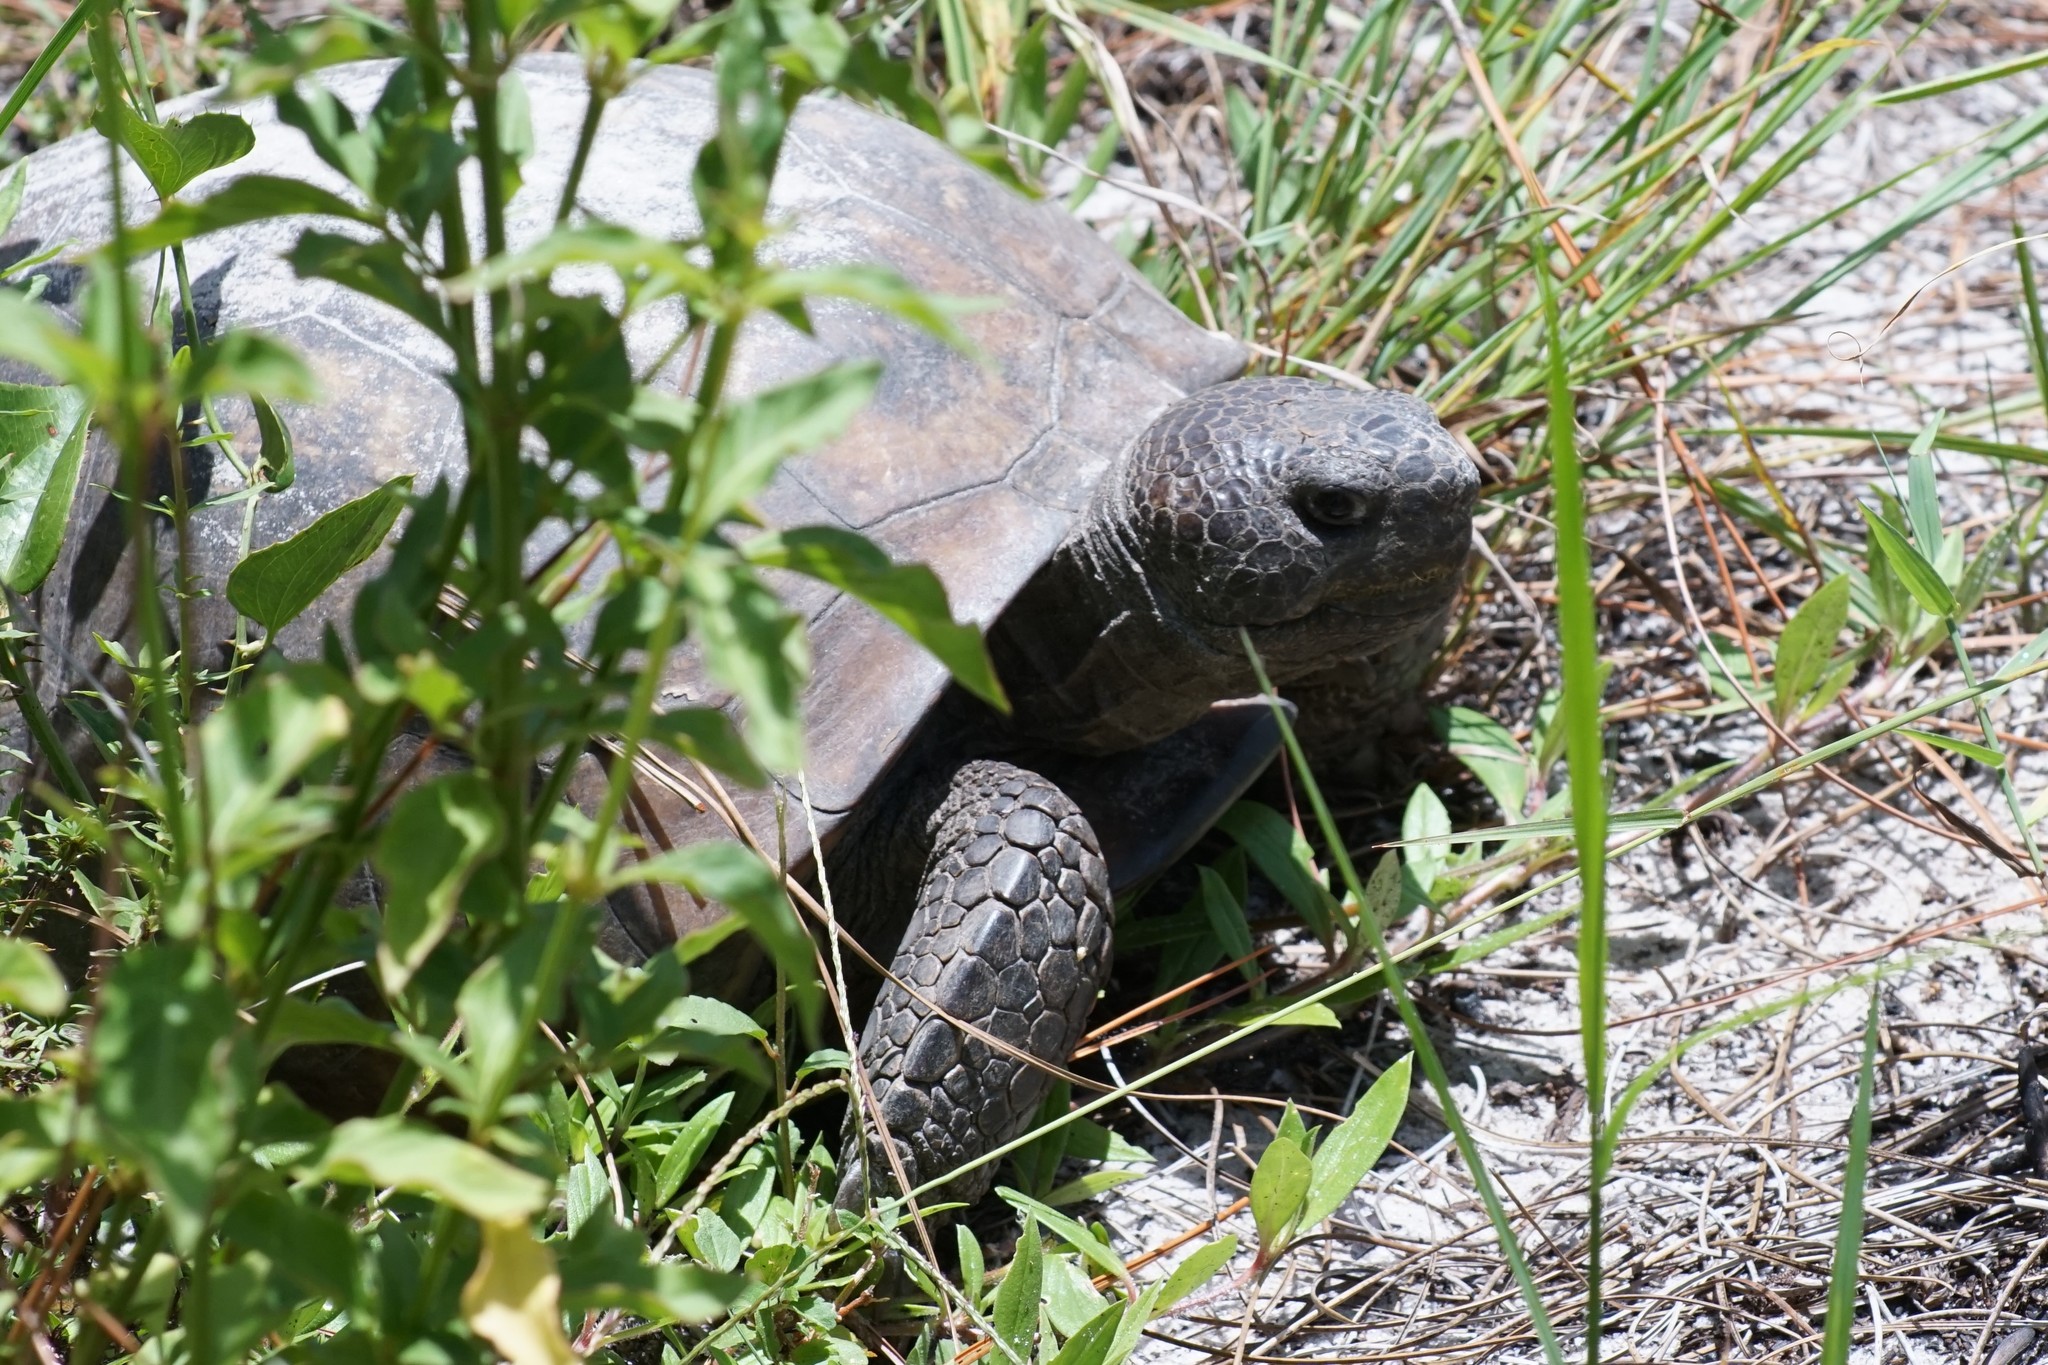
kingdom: Animalia
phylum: Chordata
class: Testudines
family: Testudinidae
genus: Gopherus
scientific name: Gopherus polyphemus
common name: Florida gopher tortoise
